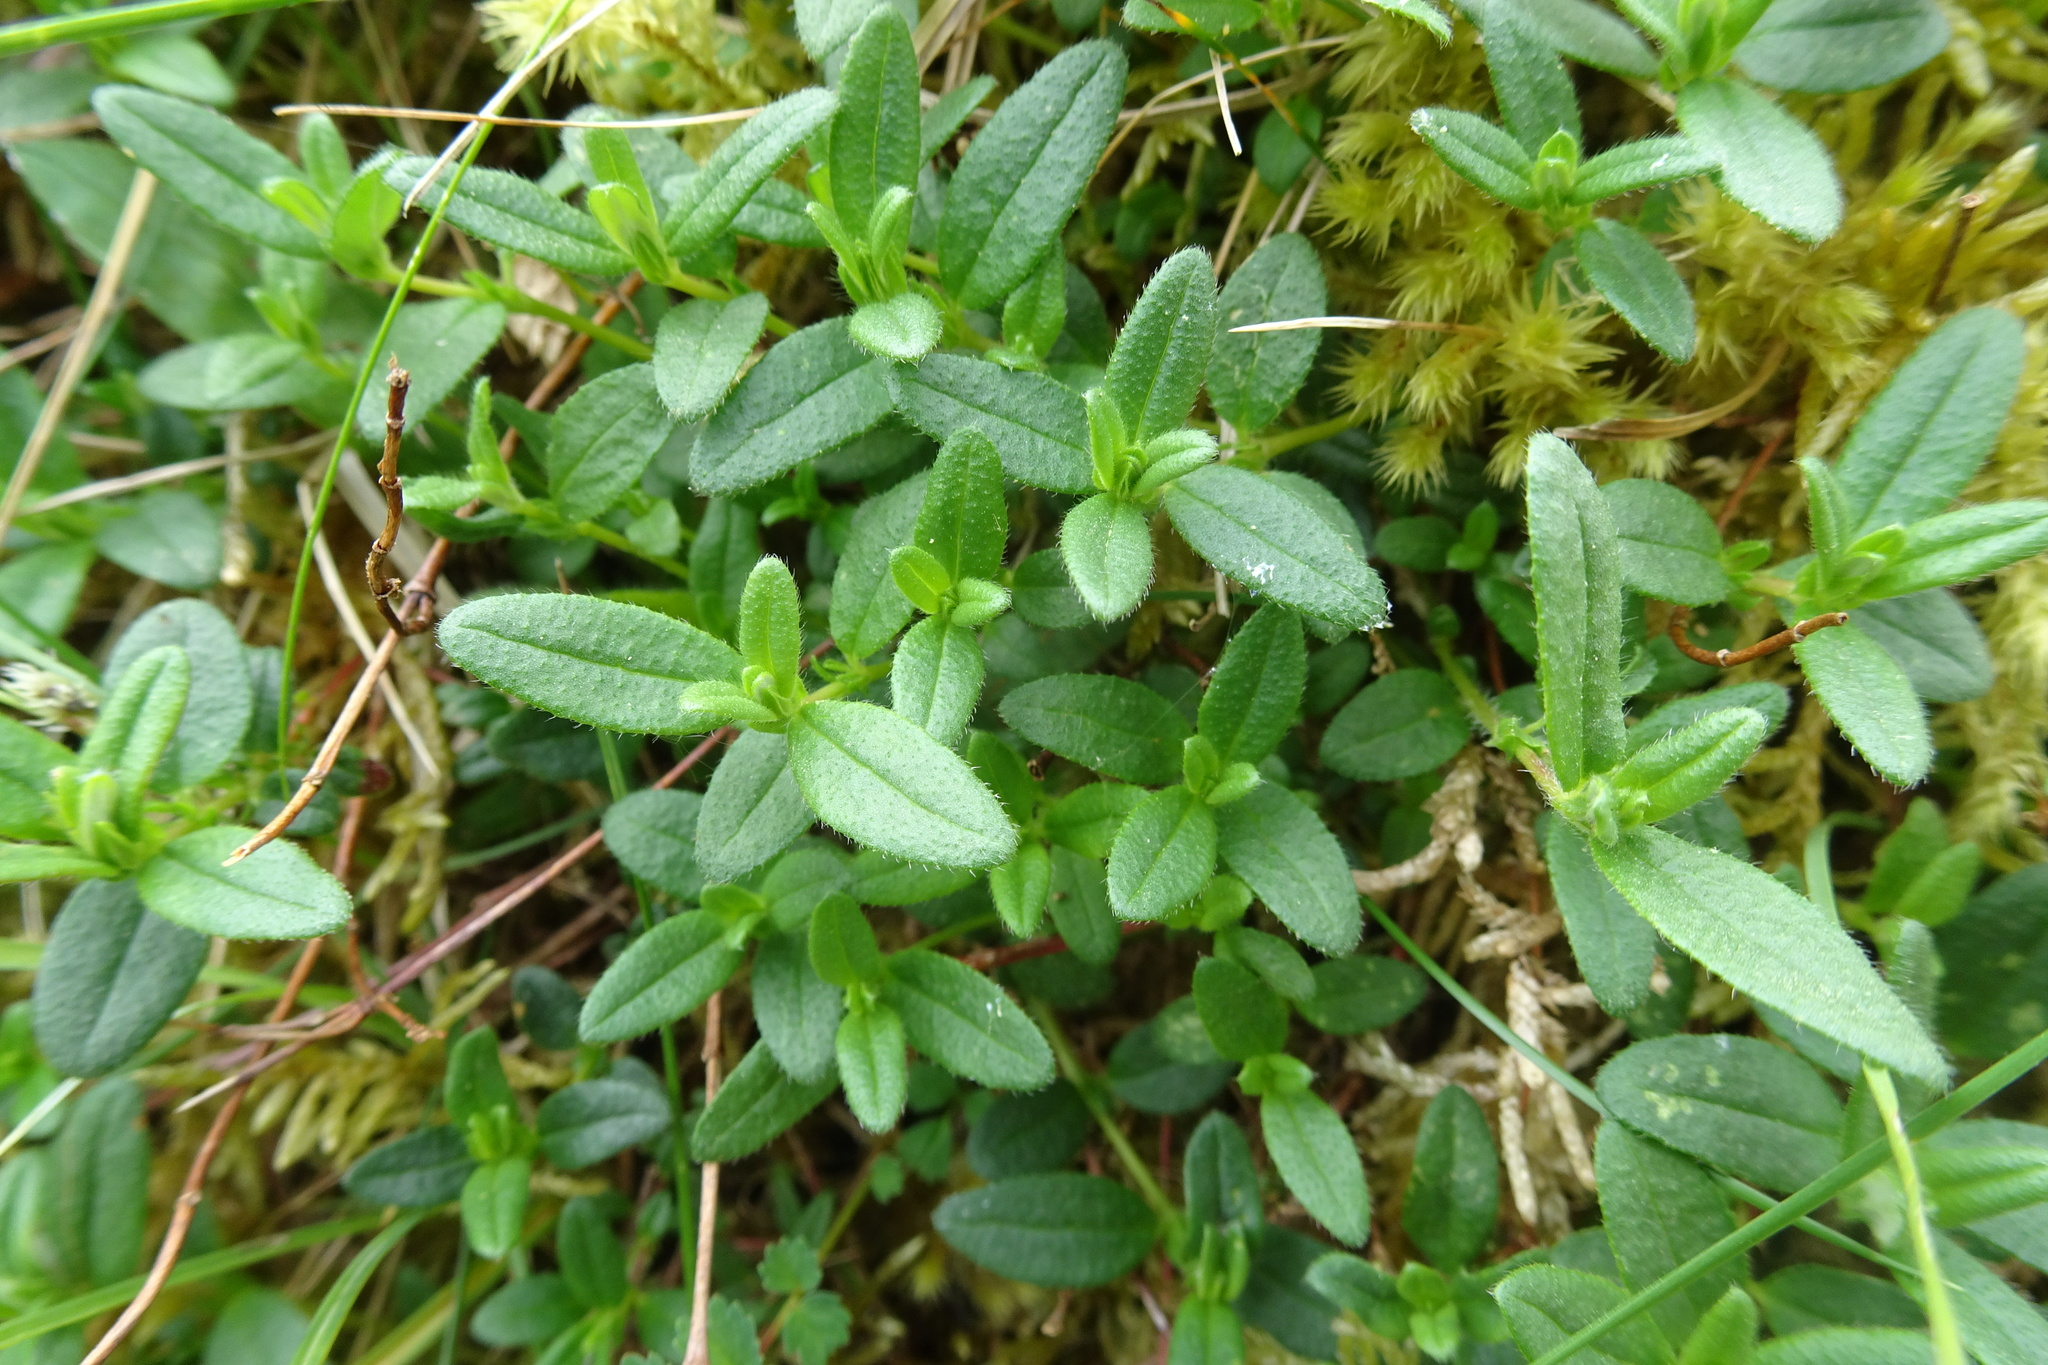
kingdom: Plantae
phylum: Tracheophyta
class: Magnoliopsida
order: Malvales
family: Cistaceae
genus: Helianthemum
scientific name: Helianthemum nummularium
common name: Common rock-rose
